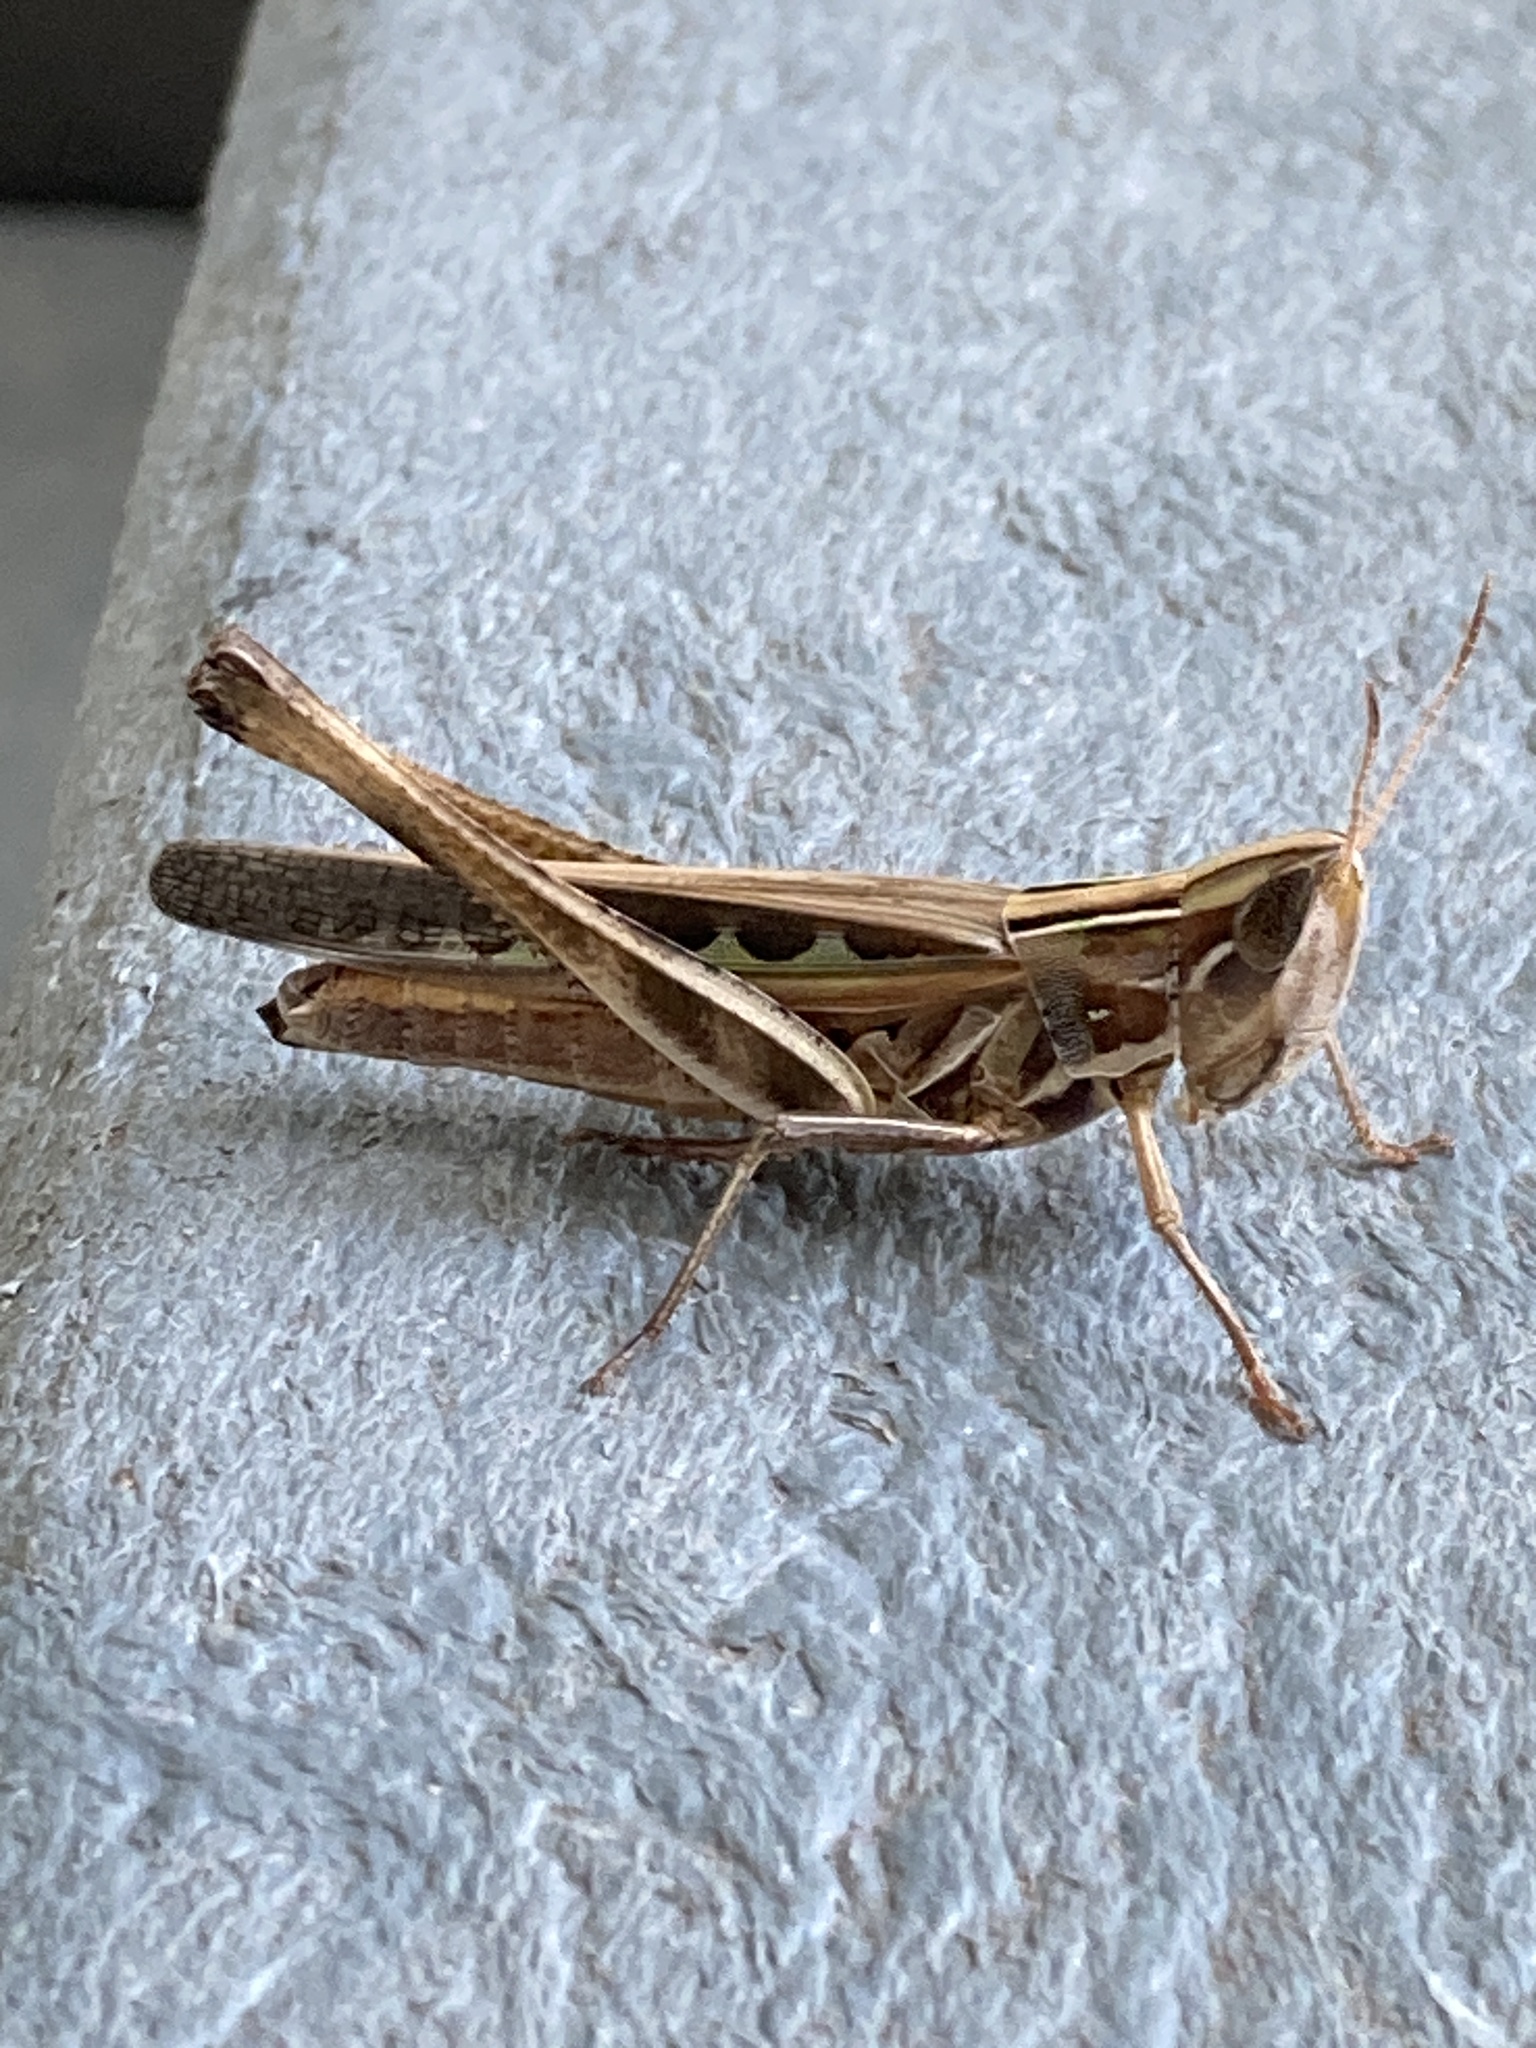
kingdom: Animalia
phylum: Arthropoda
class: Insecta
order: Orthoptera
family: Acrididae
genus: Syrbula
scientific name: Syrbula admirabilis
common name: Handsome grasshopper
